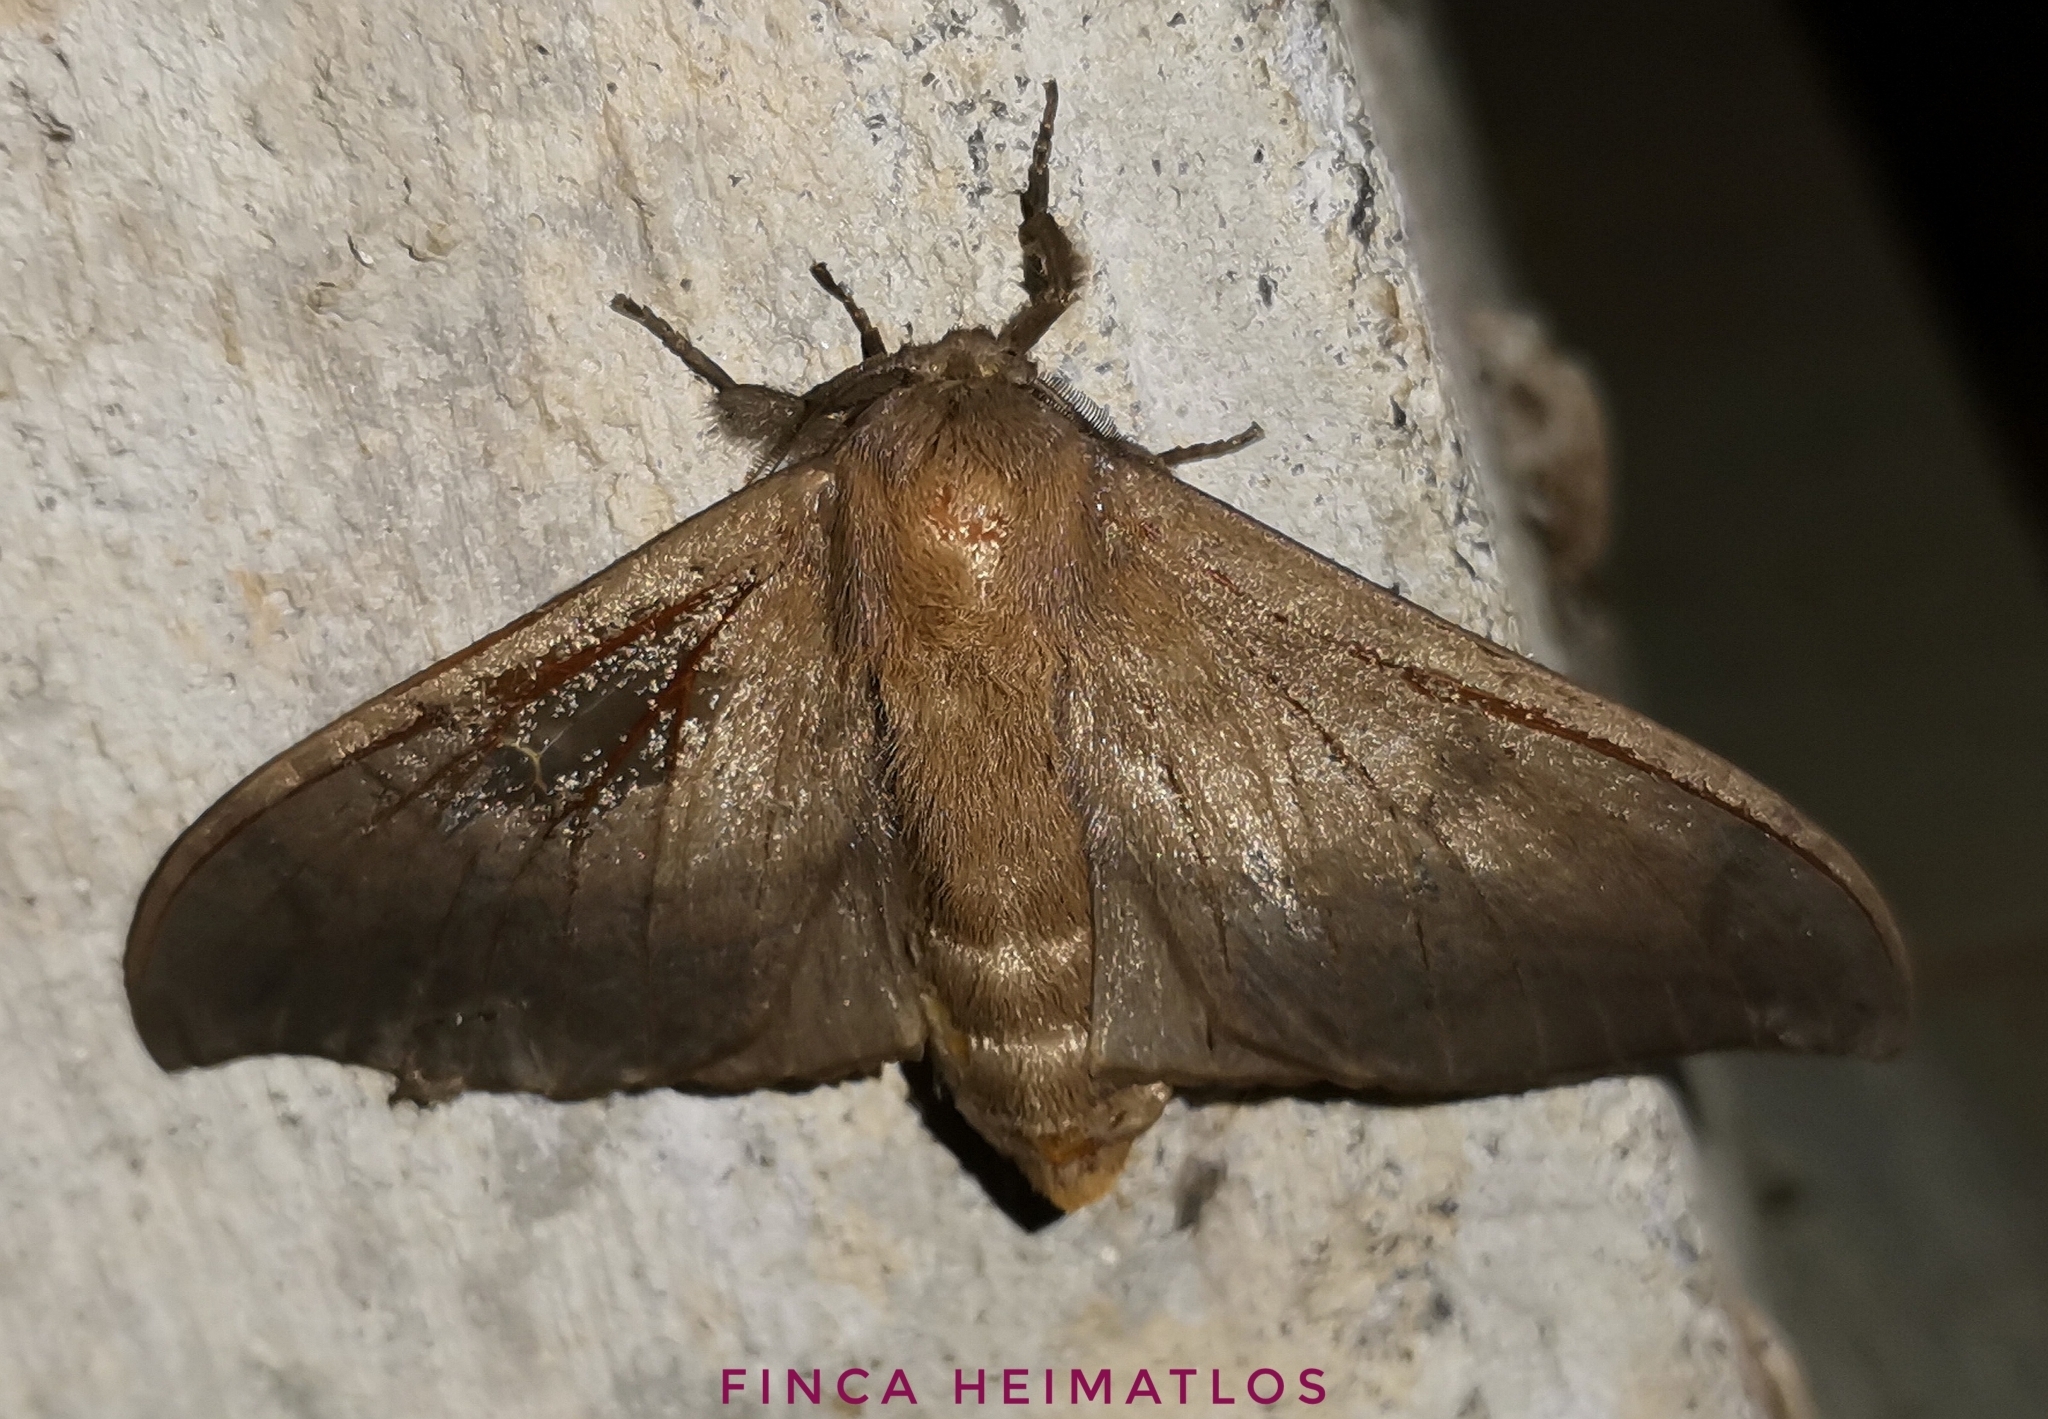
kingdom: Animalia
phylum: Arthropoda
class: Insecta
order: Lepidoptera
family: Mimallonidae
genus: Psychocampa
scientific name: Psychocampa concolor
